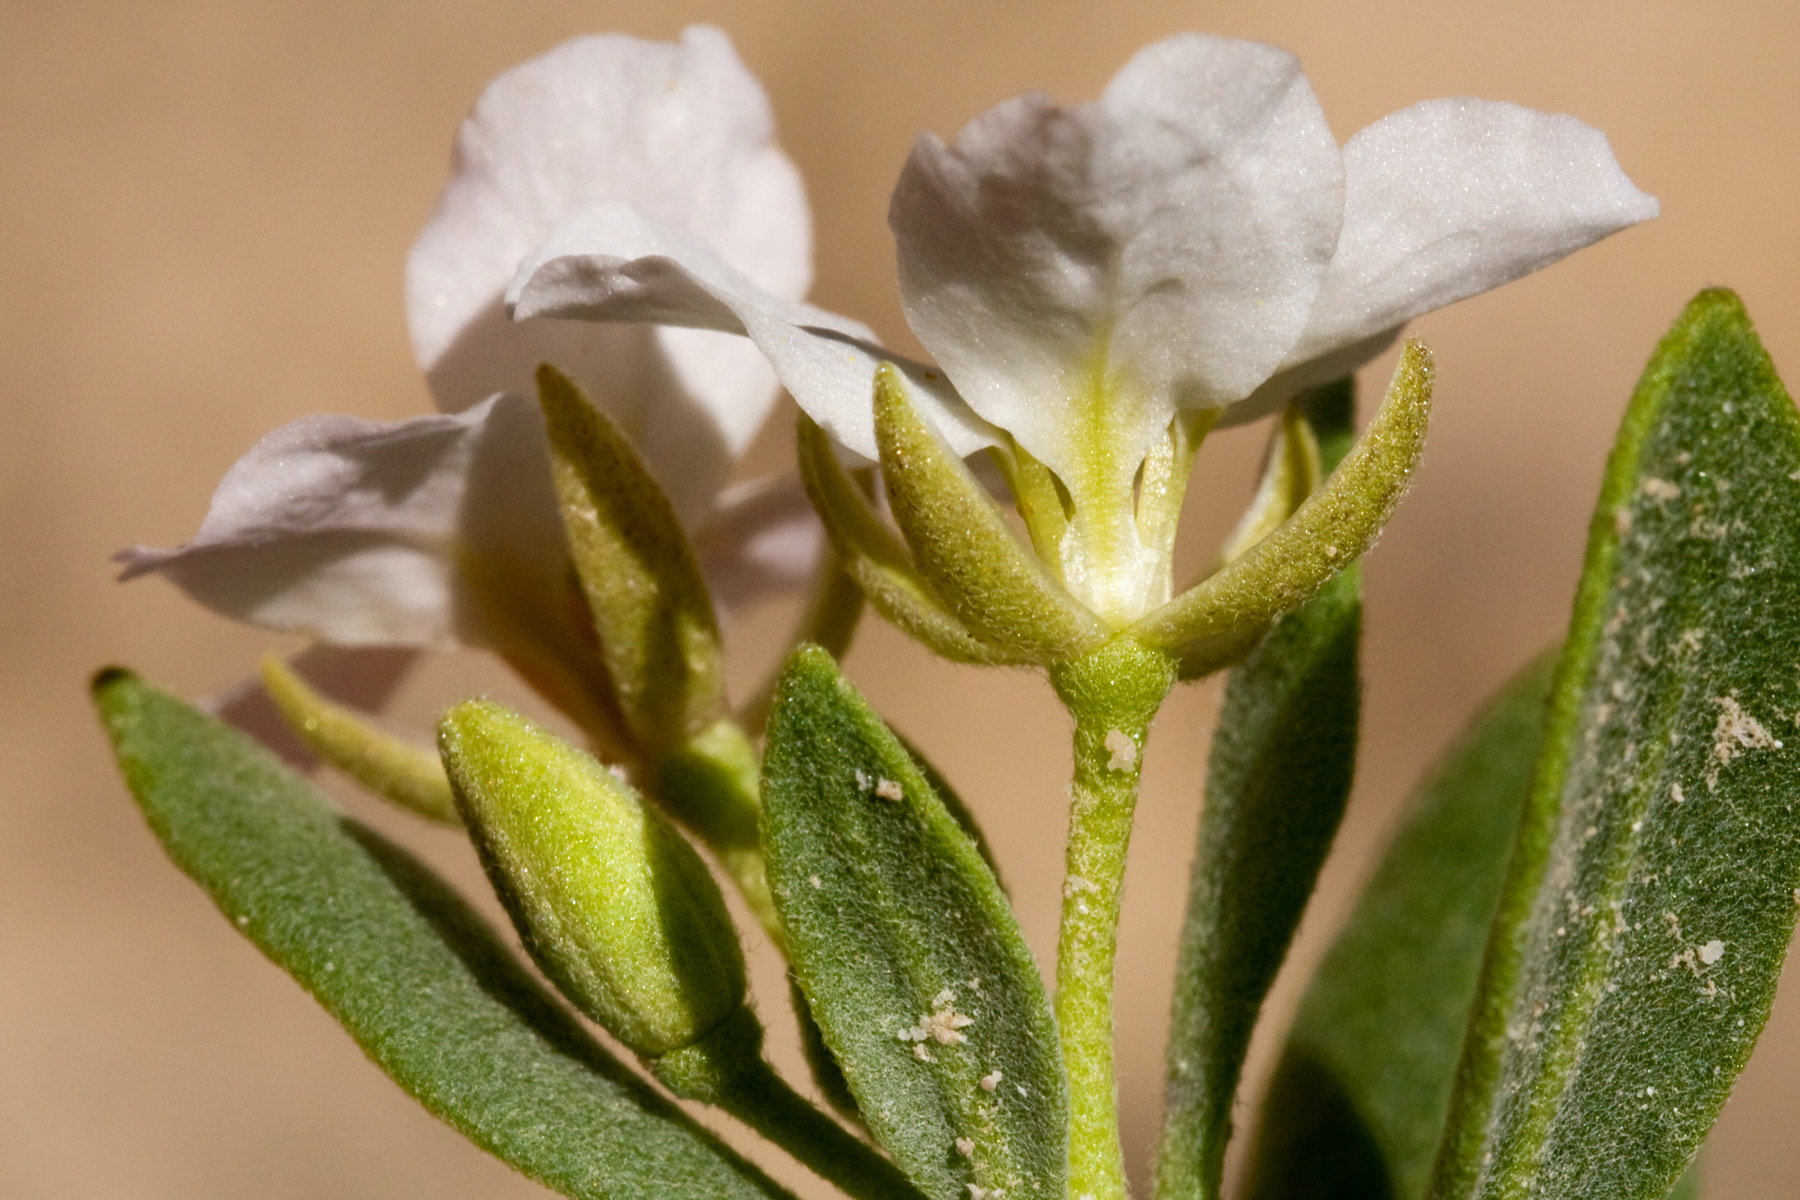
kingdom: Plantae
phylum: Tracheophyta
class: Magnoliopsida
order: Brassicales
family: Brassicaceae
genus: Nerisyrenia
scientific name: Nerisyrenia hypercorax
